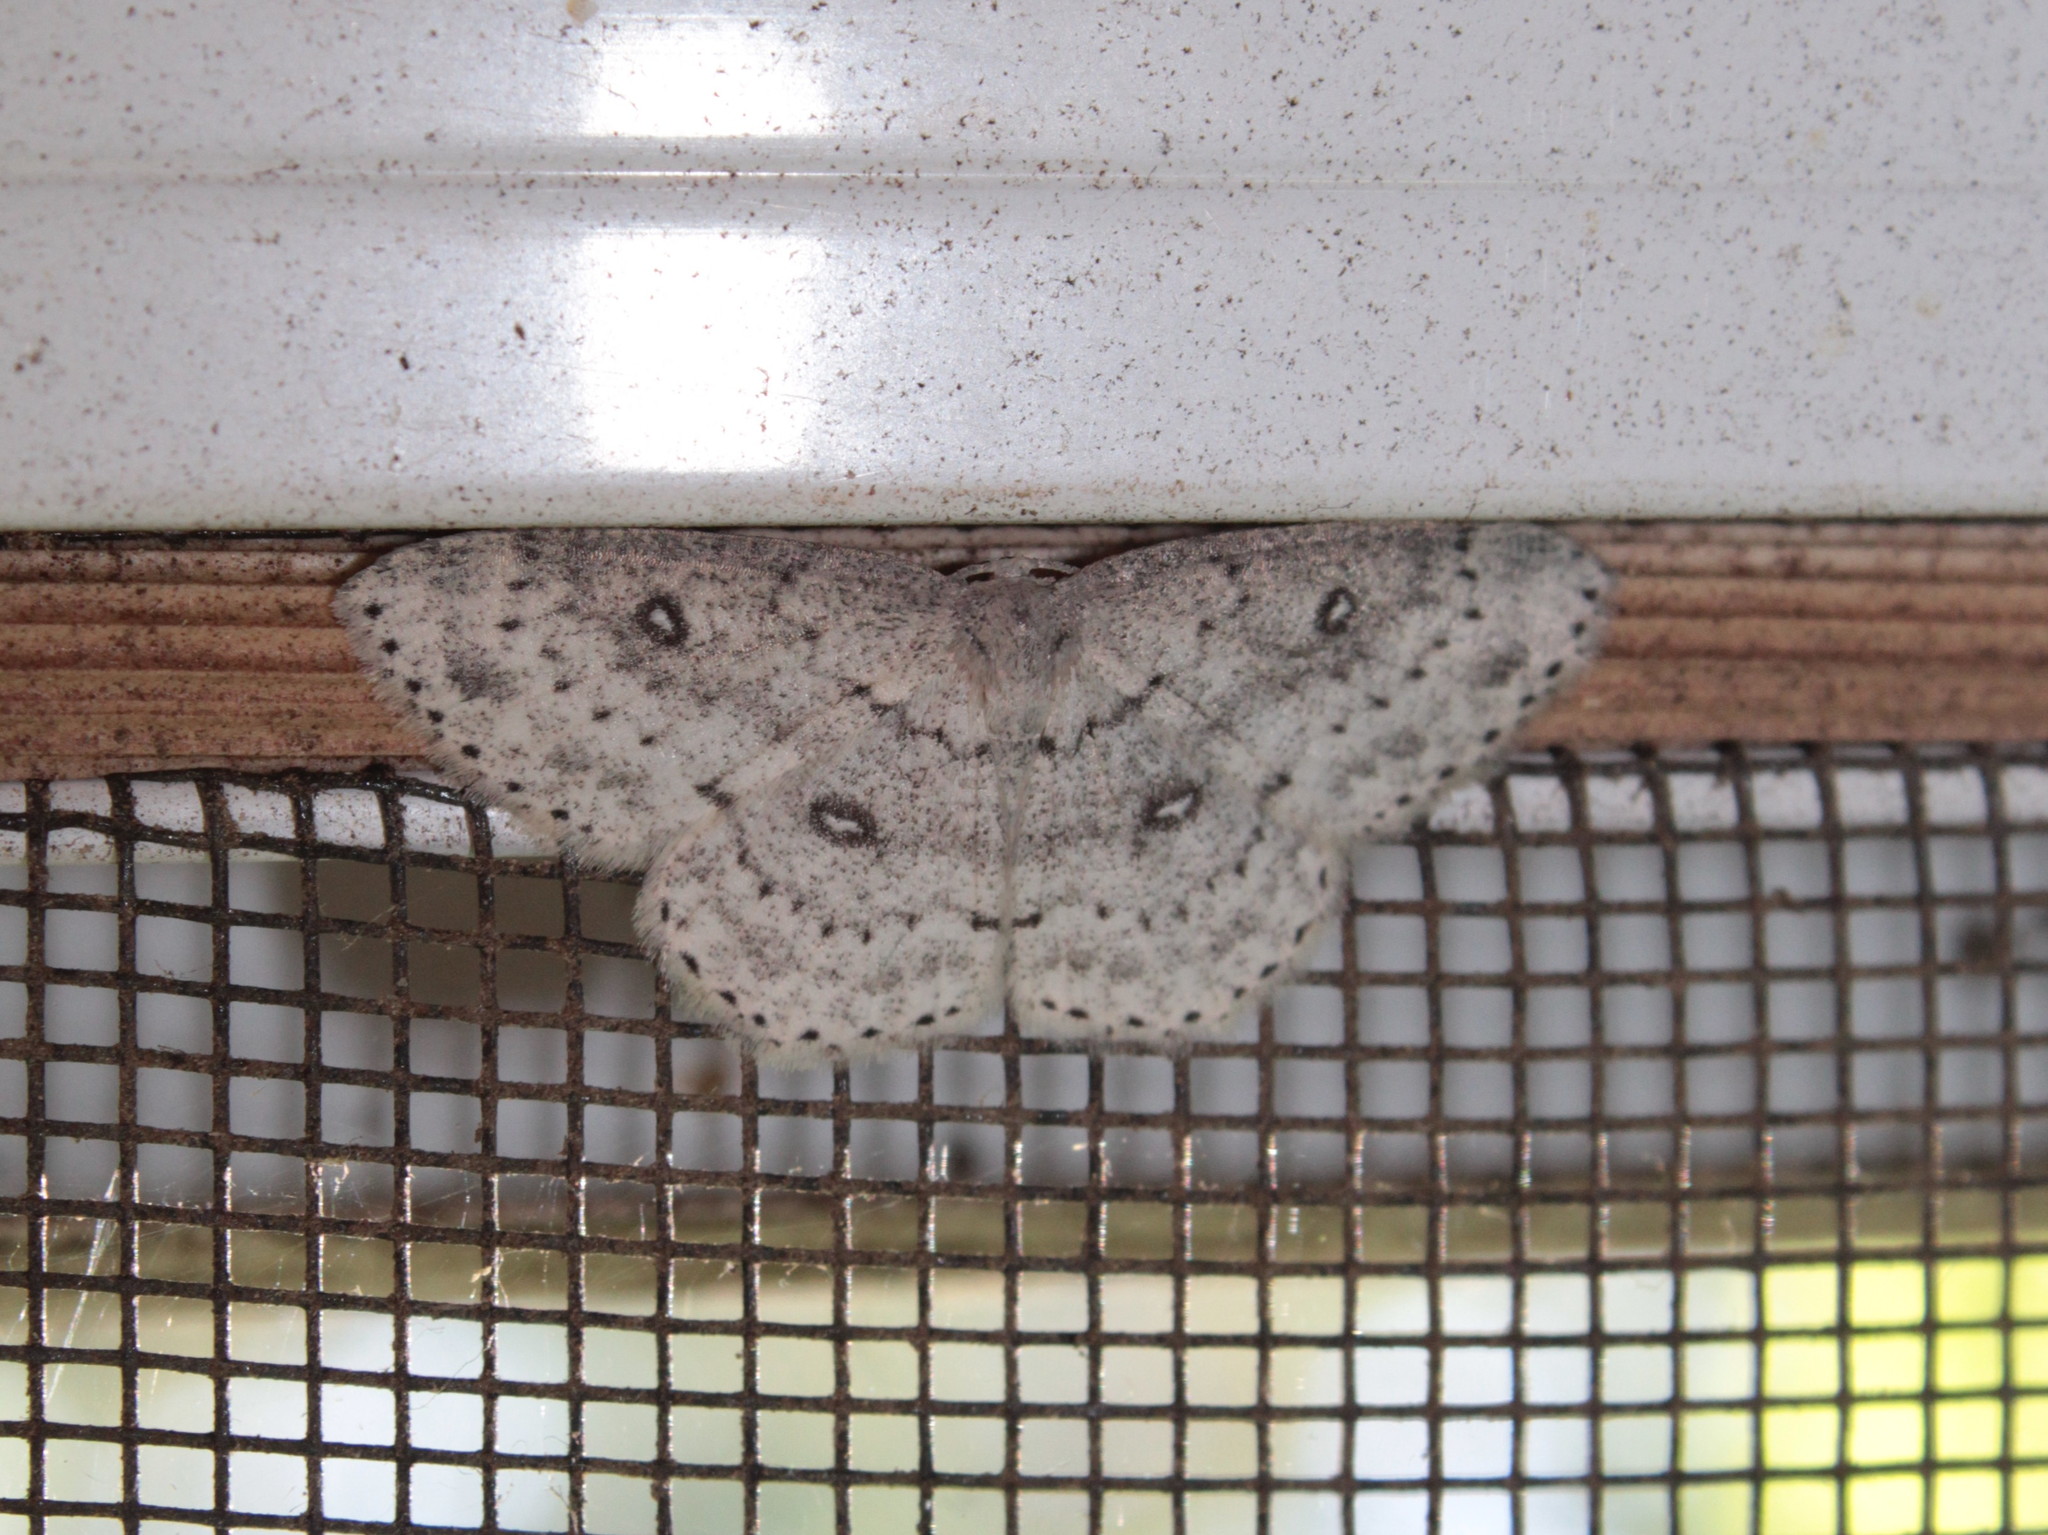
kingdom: Animalia
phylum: Arthropoda
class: Insecta
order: Lepidoptera
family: Geometridae
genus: Cyclophora
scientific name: Cyclophora pendulinaria
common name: Sweet fern geometer
